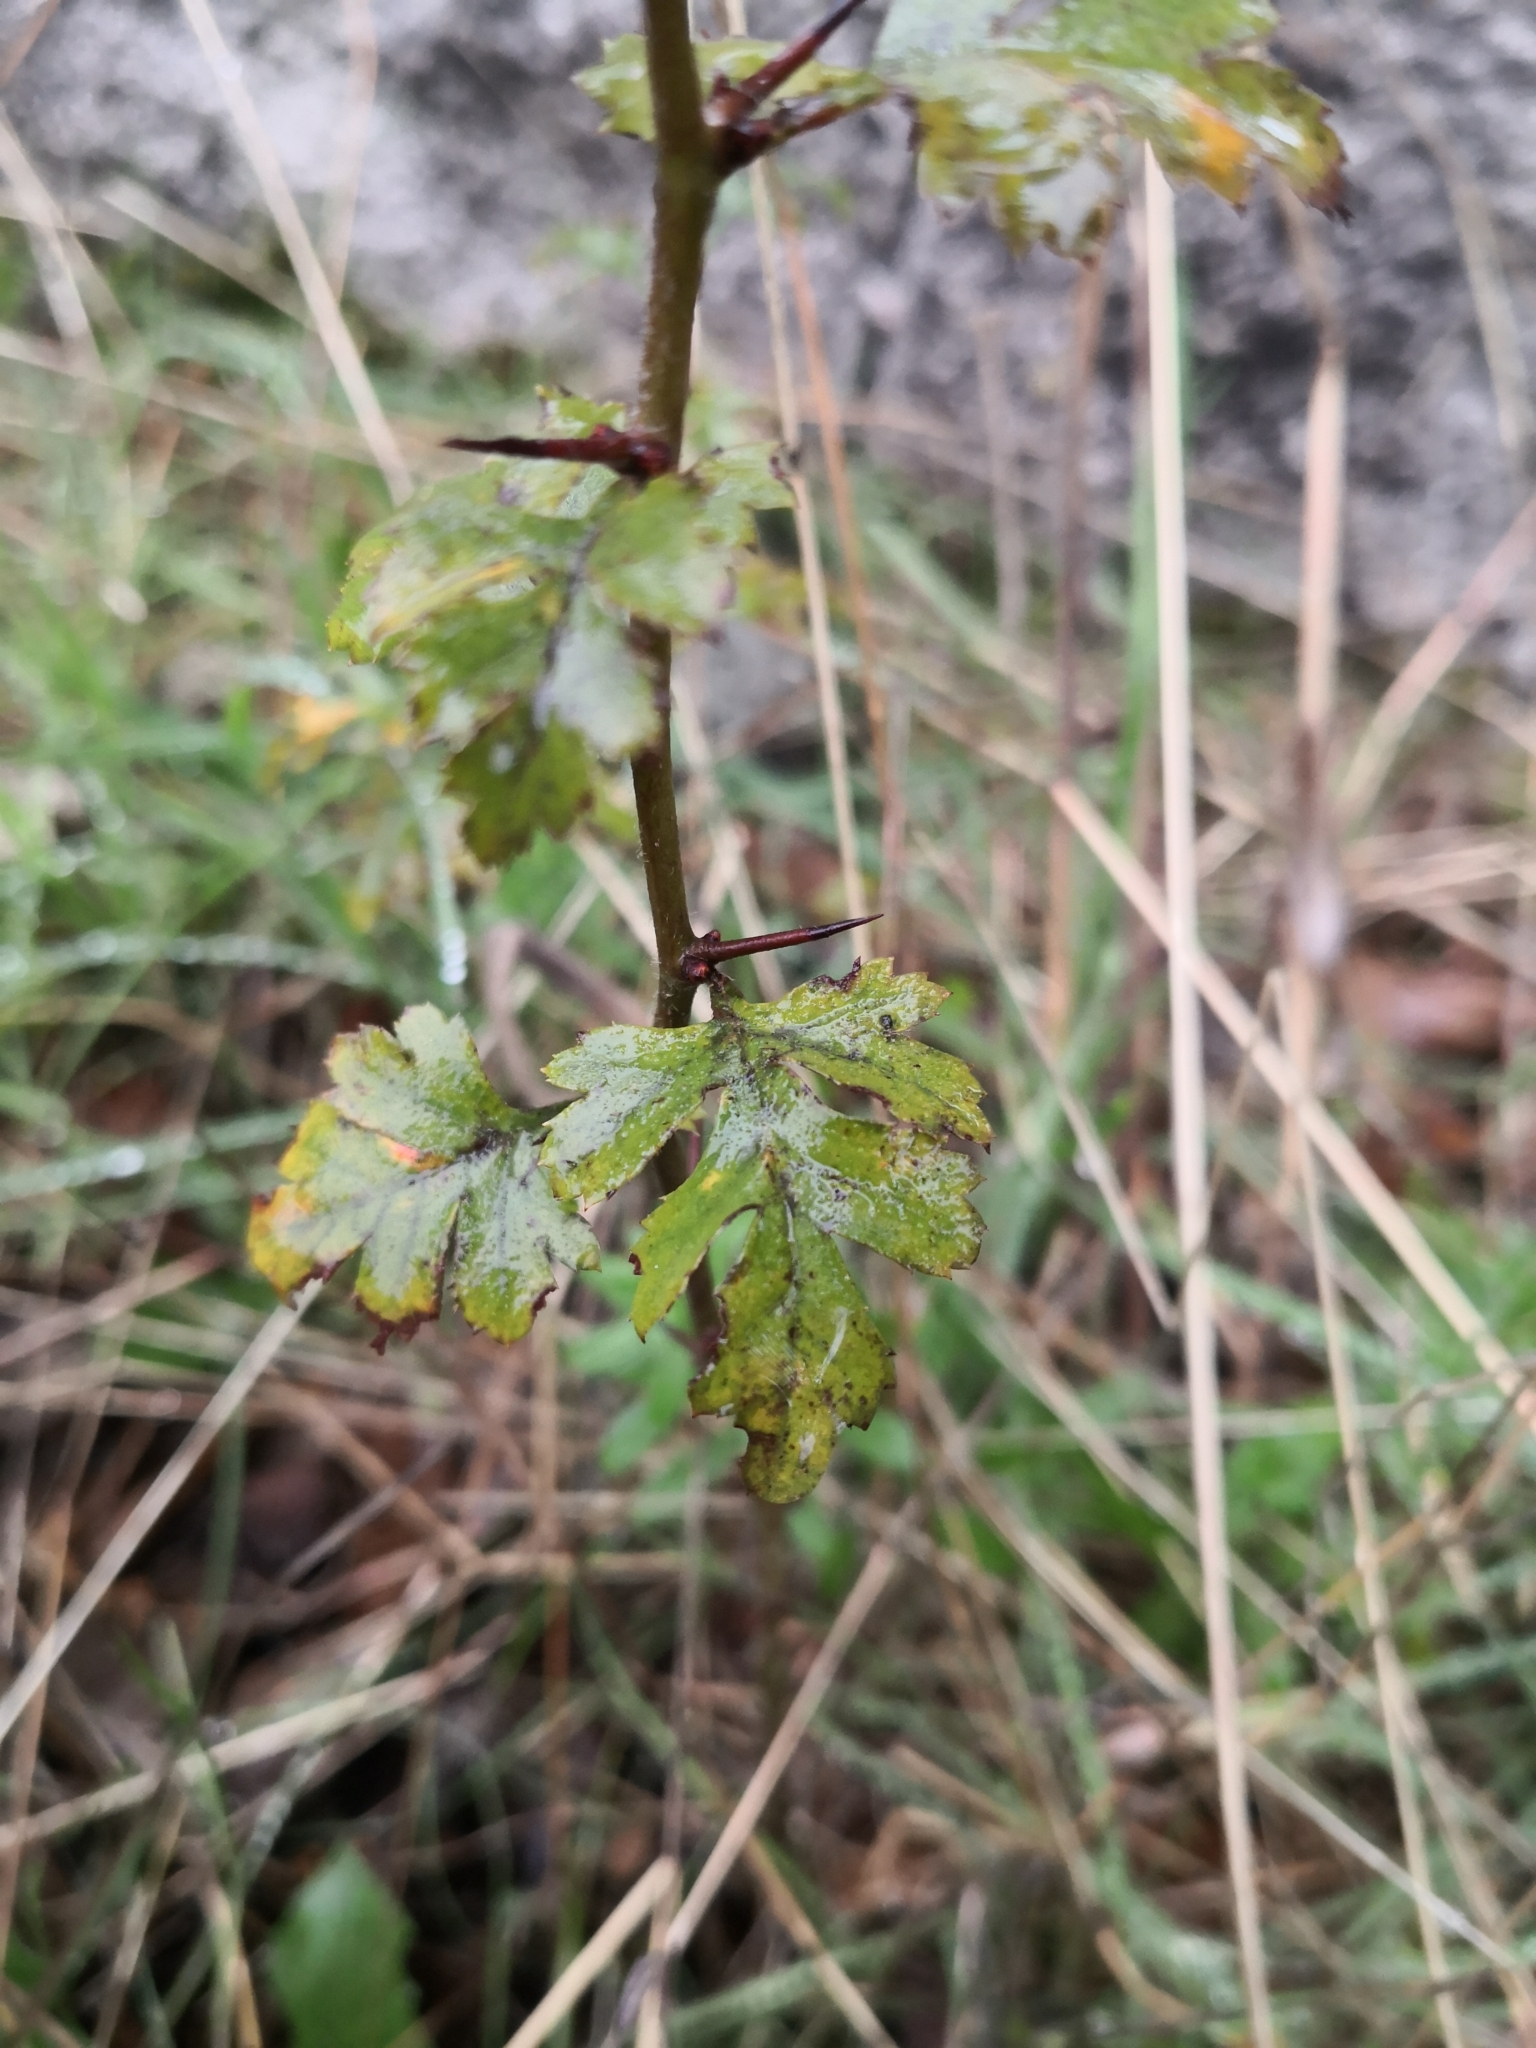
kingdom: Plantae
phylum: Tracheophyta
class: Magnoliopsida
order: Rosales
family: Rosaceae
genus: Crataegus
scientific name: Crataegus monogyna
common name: Hawthorn
